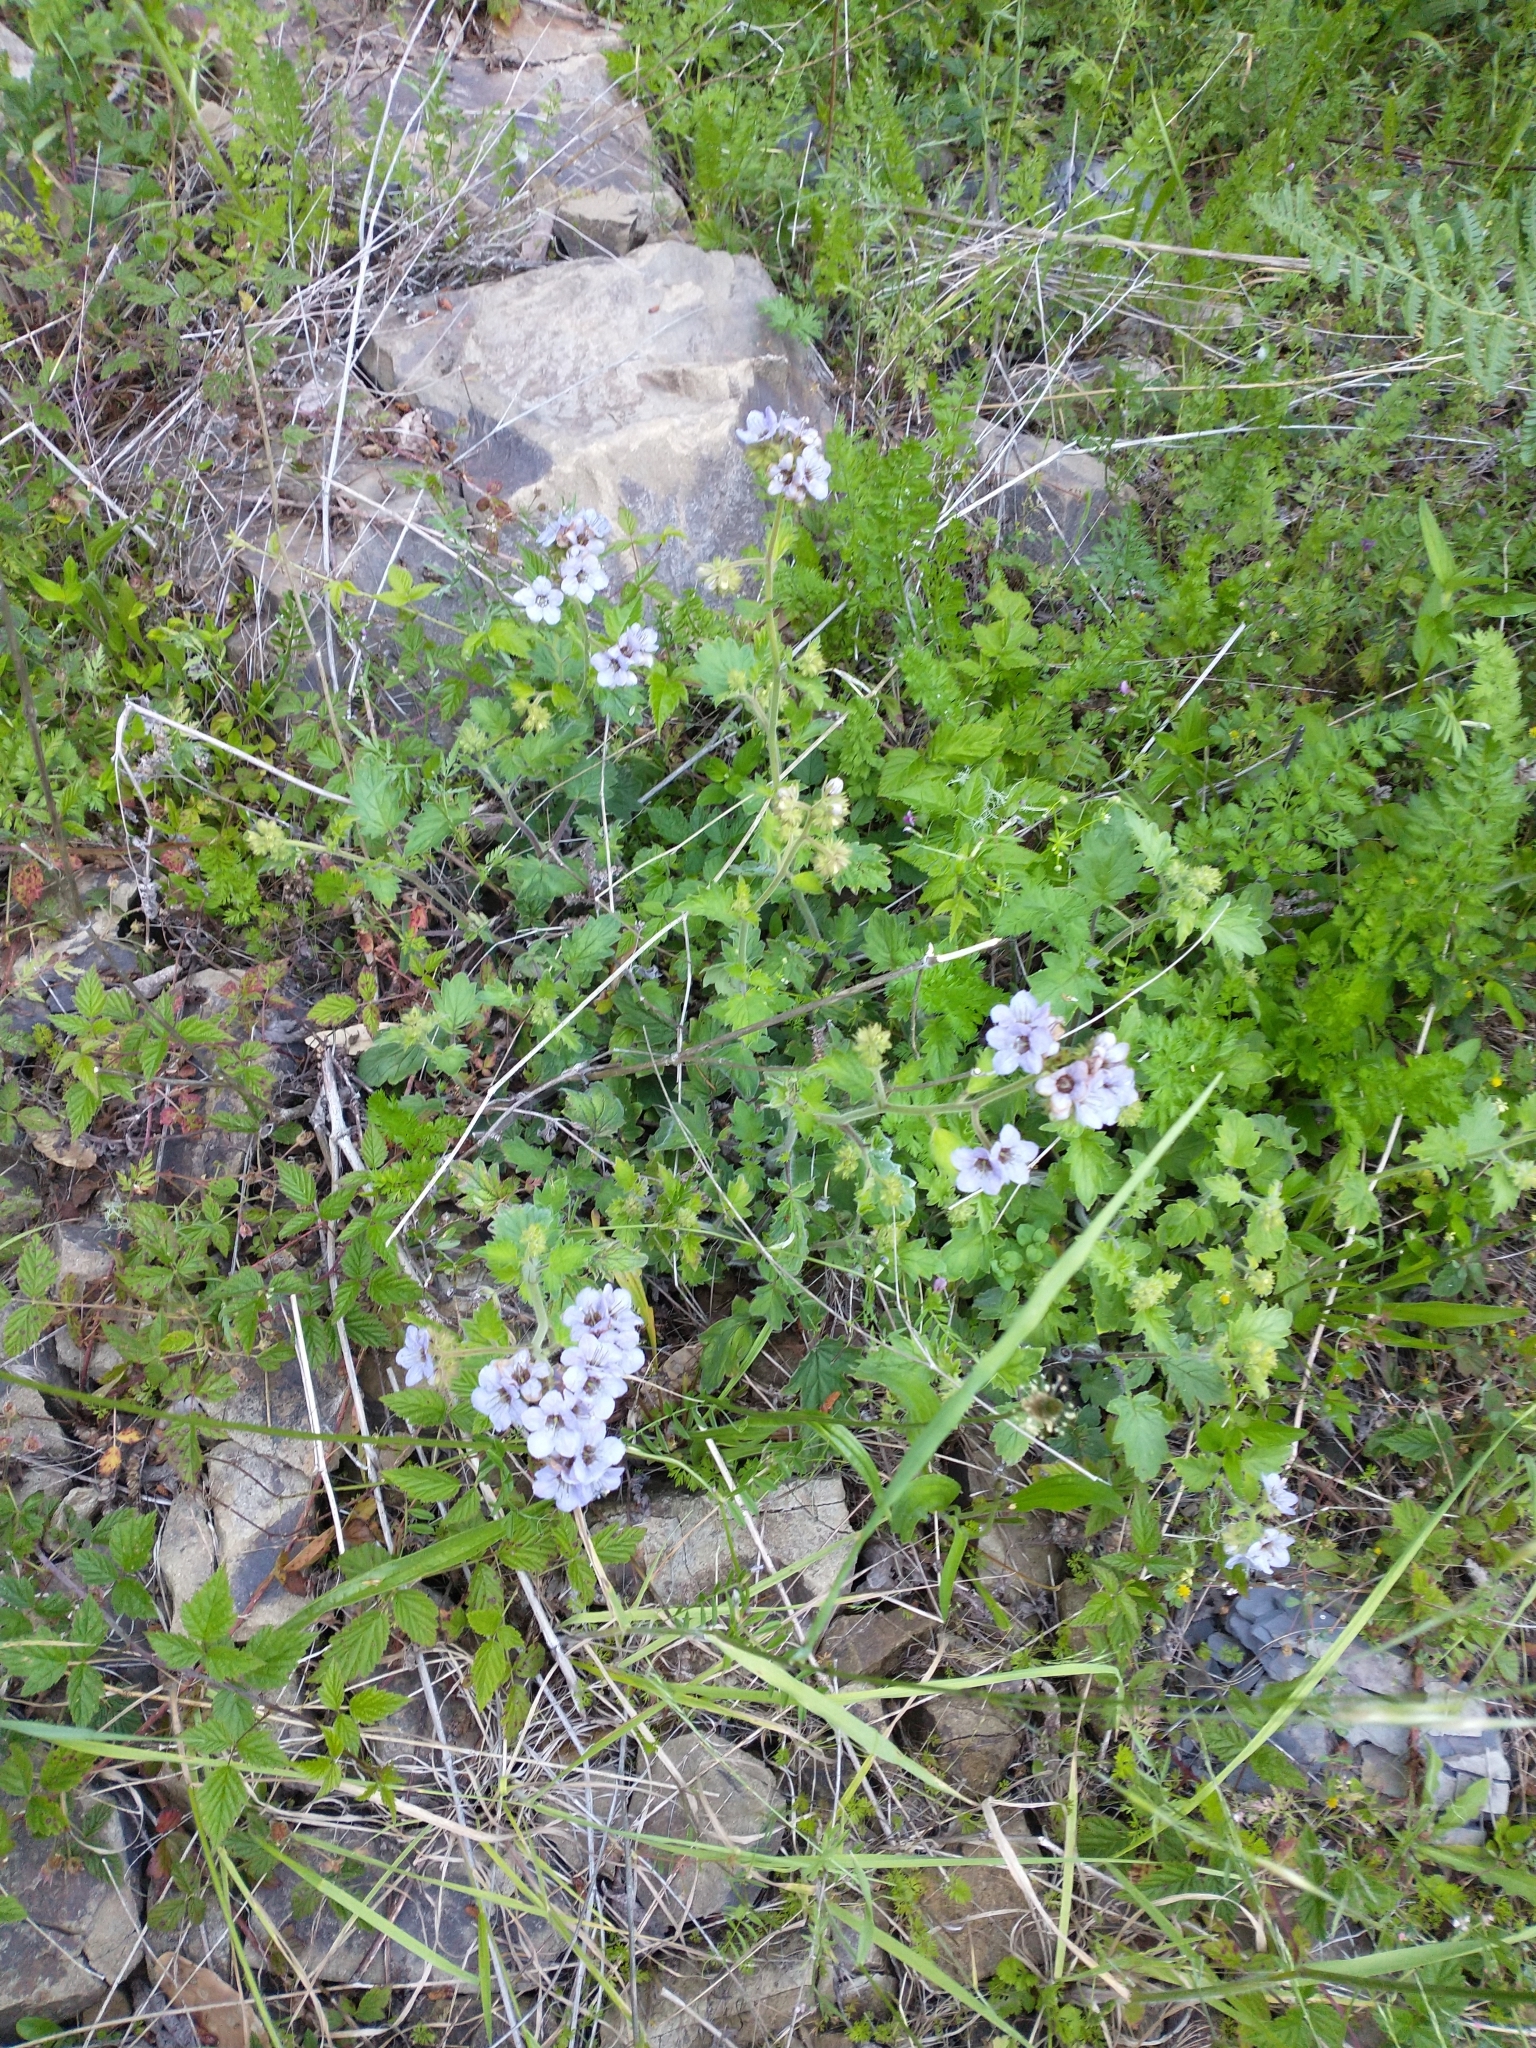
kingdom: Plantae
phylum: Tracheophyta
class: Magnoliopsida
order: Boraginales
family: Hydrophyllaceae
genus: Phacelia
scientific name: Phacelia bolanderi
